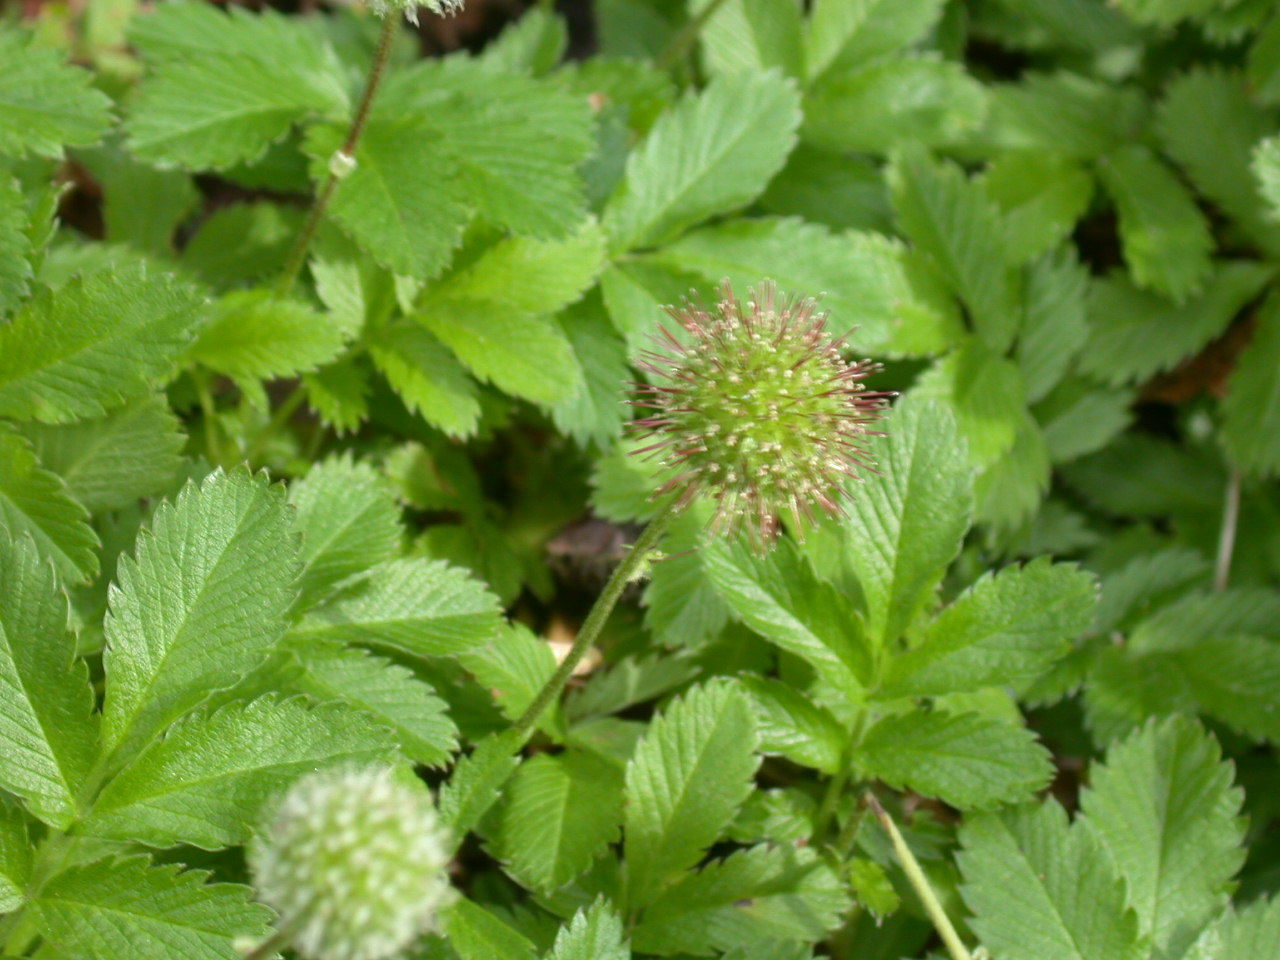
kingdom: Plantae
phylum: Tracheophyta
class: Magnoliopsida
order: Rosales
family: Rosaceae
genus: Acaena
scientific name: Acaena ovalifolia
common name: Two-spined acaena
